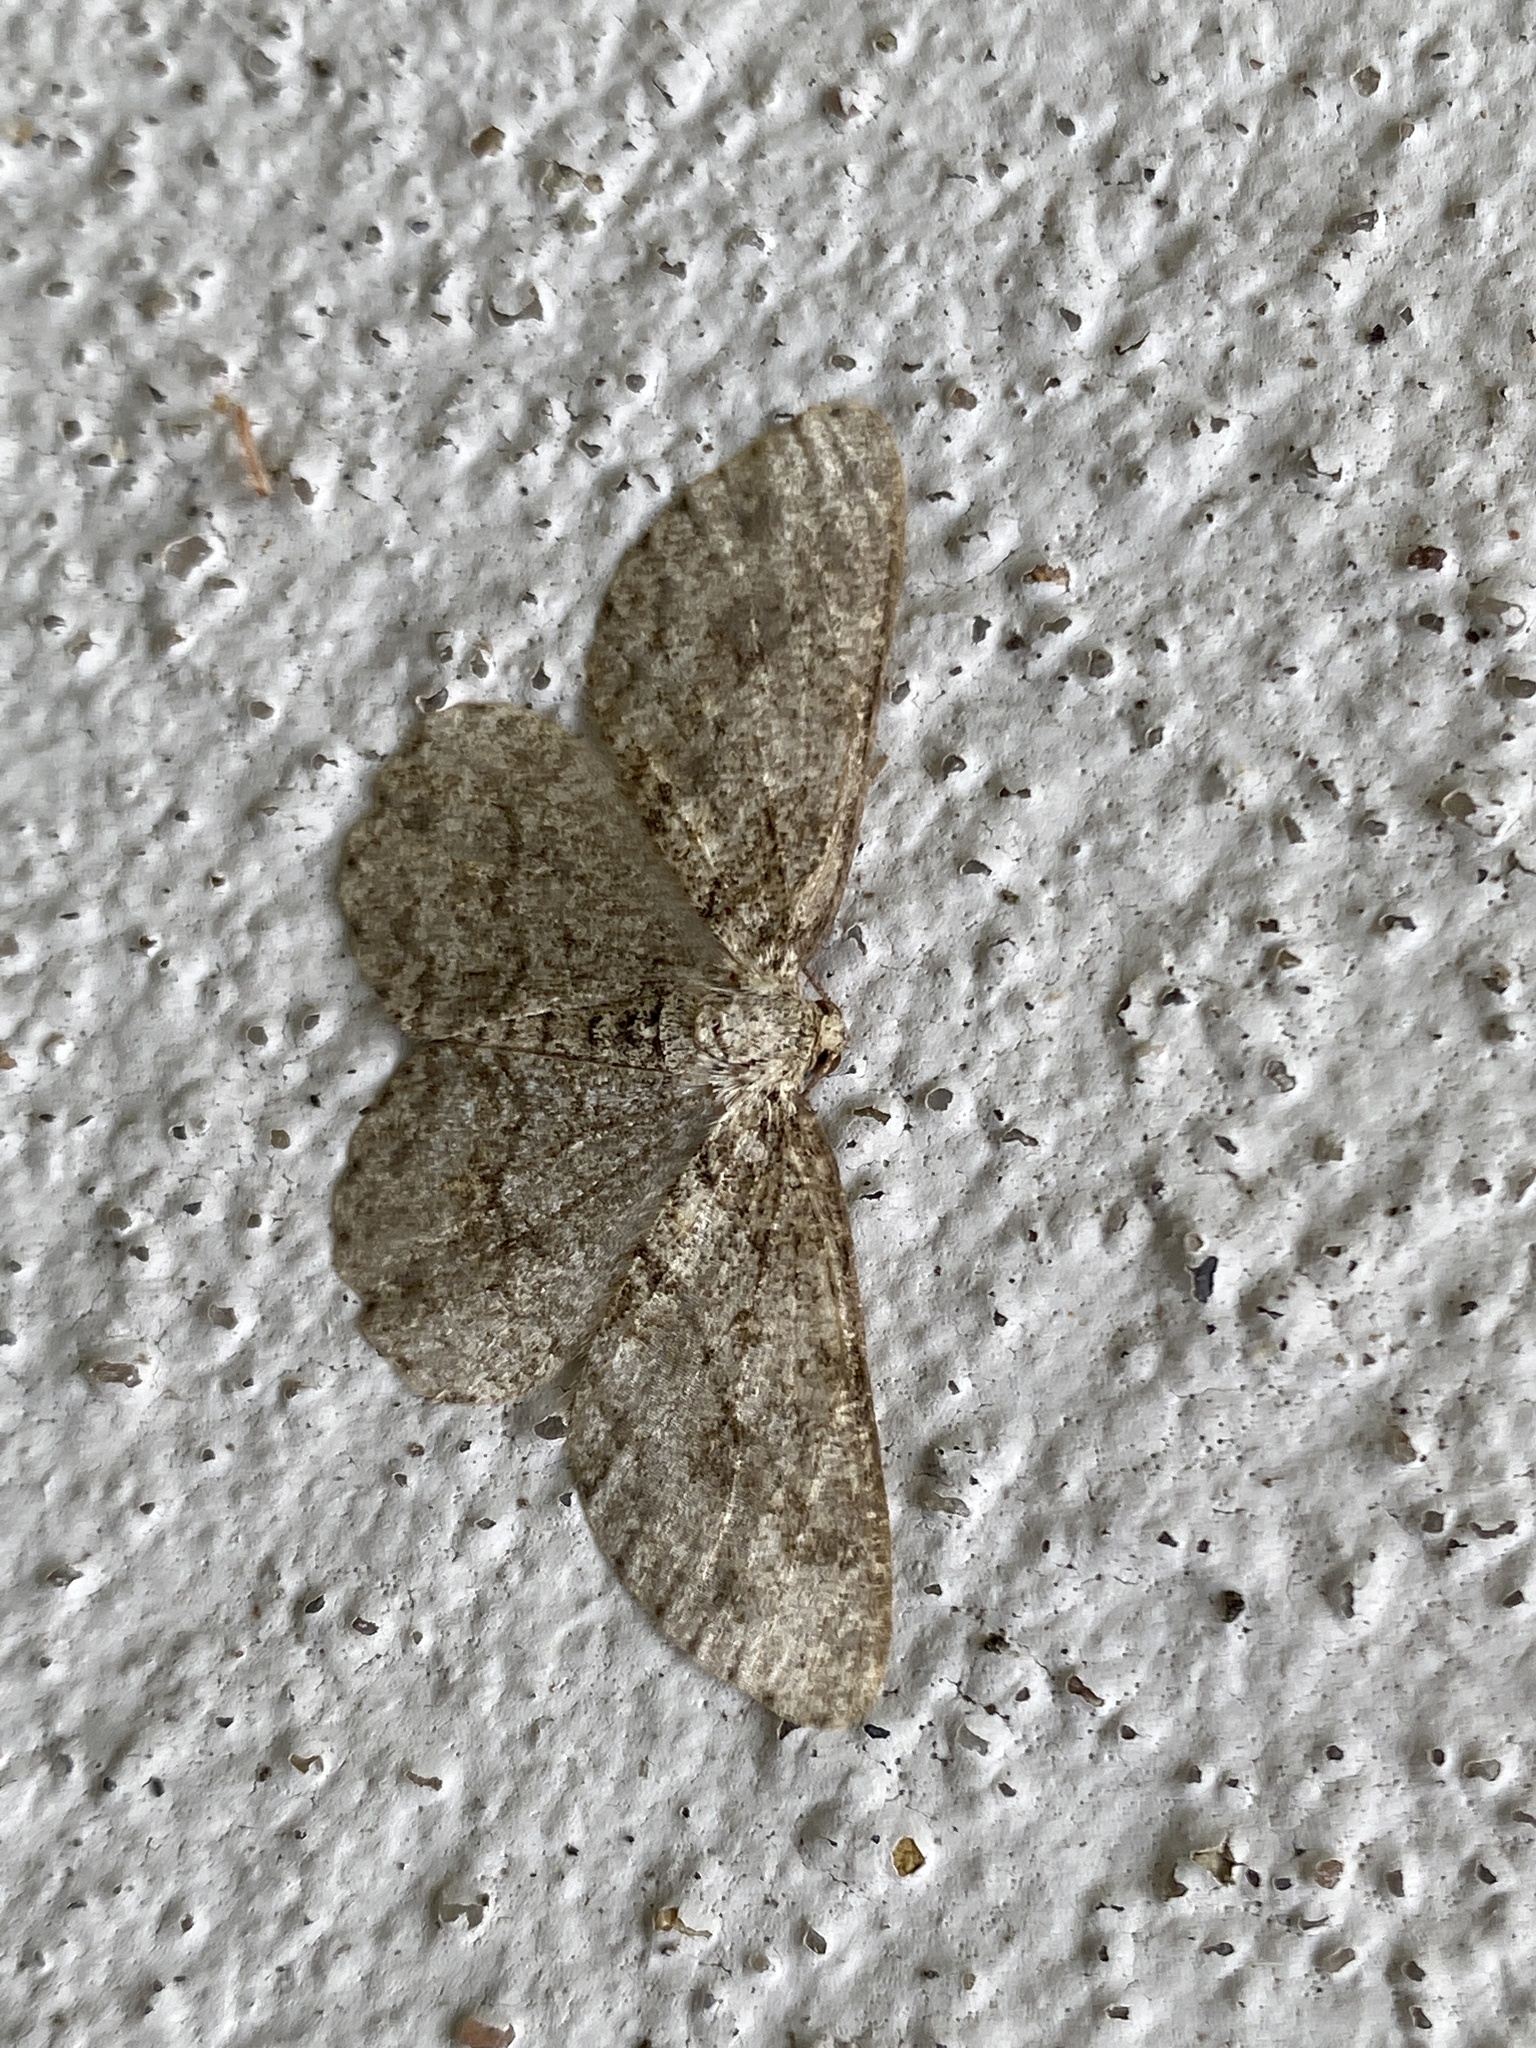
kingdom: Animalia
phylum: Arthropoda
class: Insecta
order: Lepidoptera
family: Geometridae
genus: Ectropis
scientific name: Ectropis crepuscularia
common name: Engrailed
